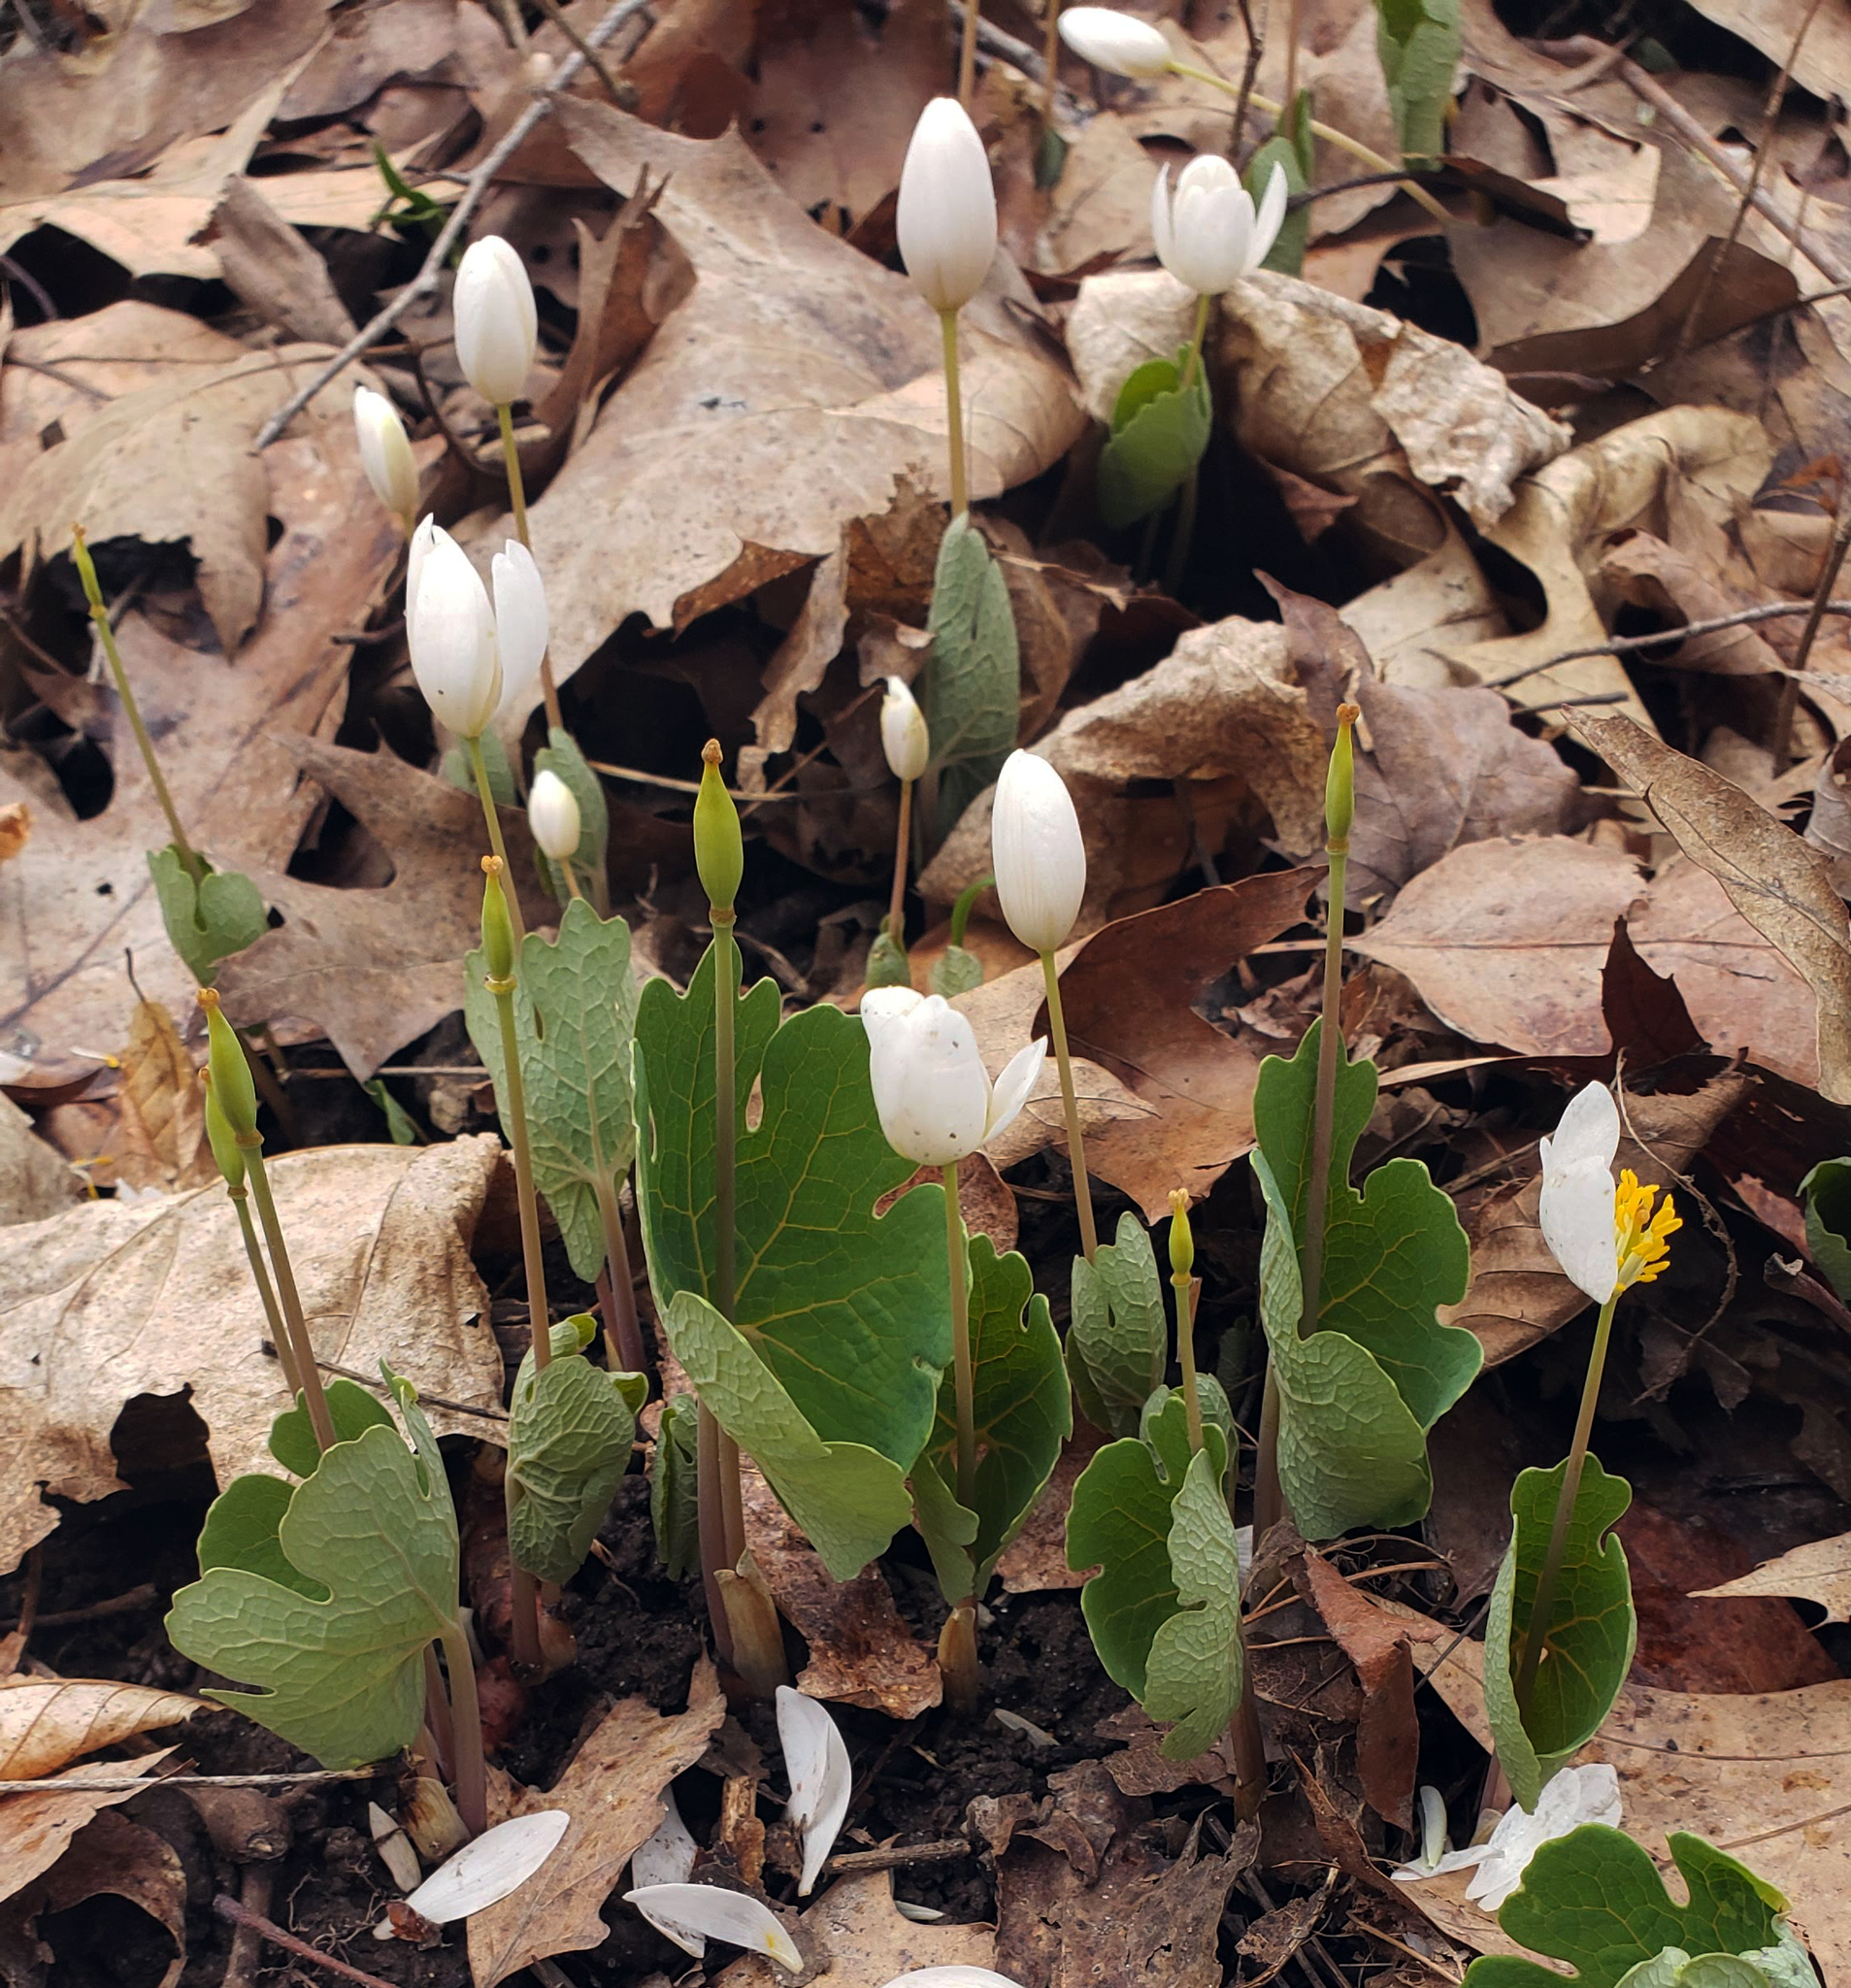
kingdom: Plantae
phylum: Tracheophyta
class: Magnoliopsida
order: Ranunculales
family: Papaveraceae
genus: Sanguinaria
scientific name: Sanguinaria canadensis
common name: Bloodroot
